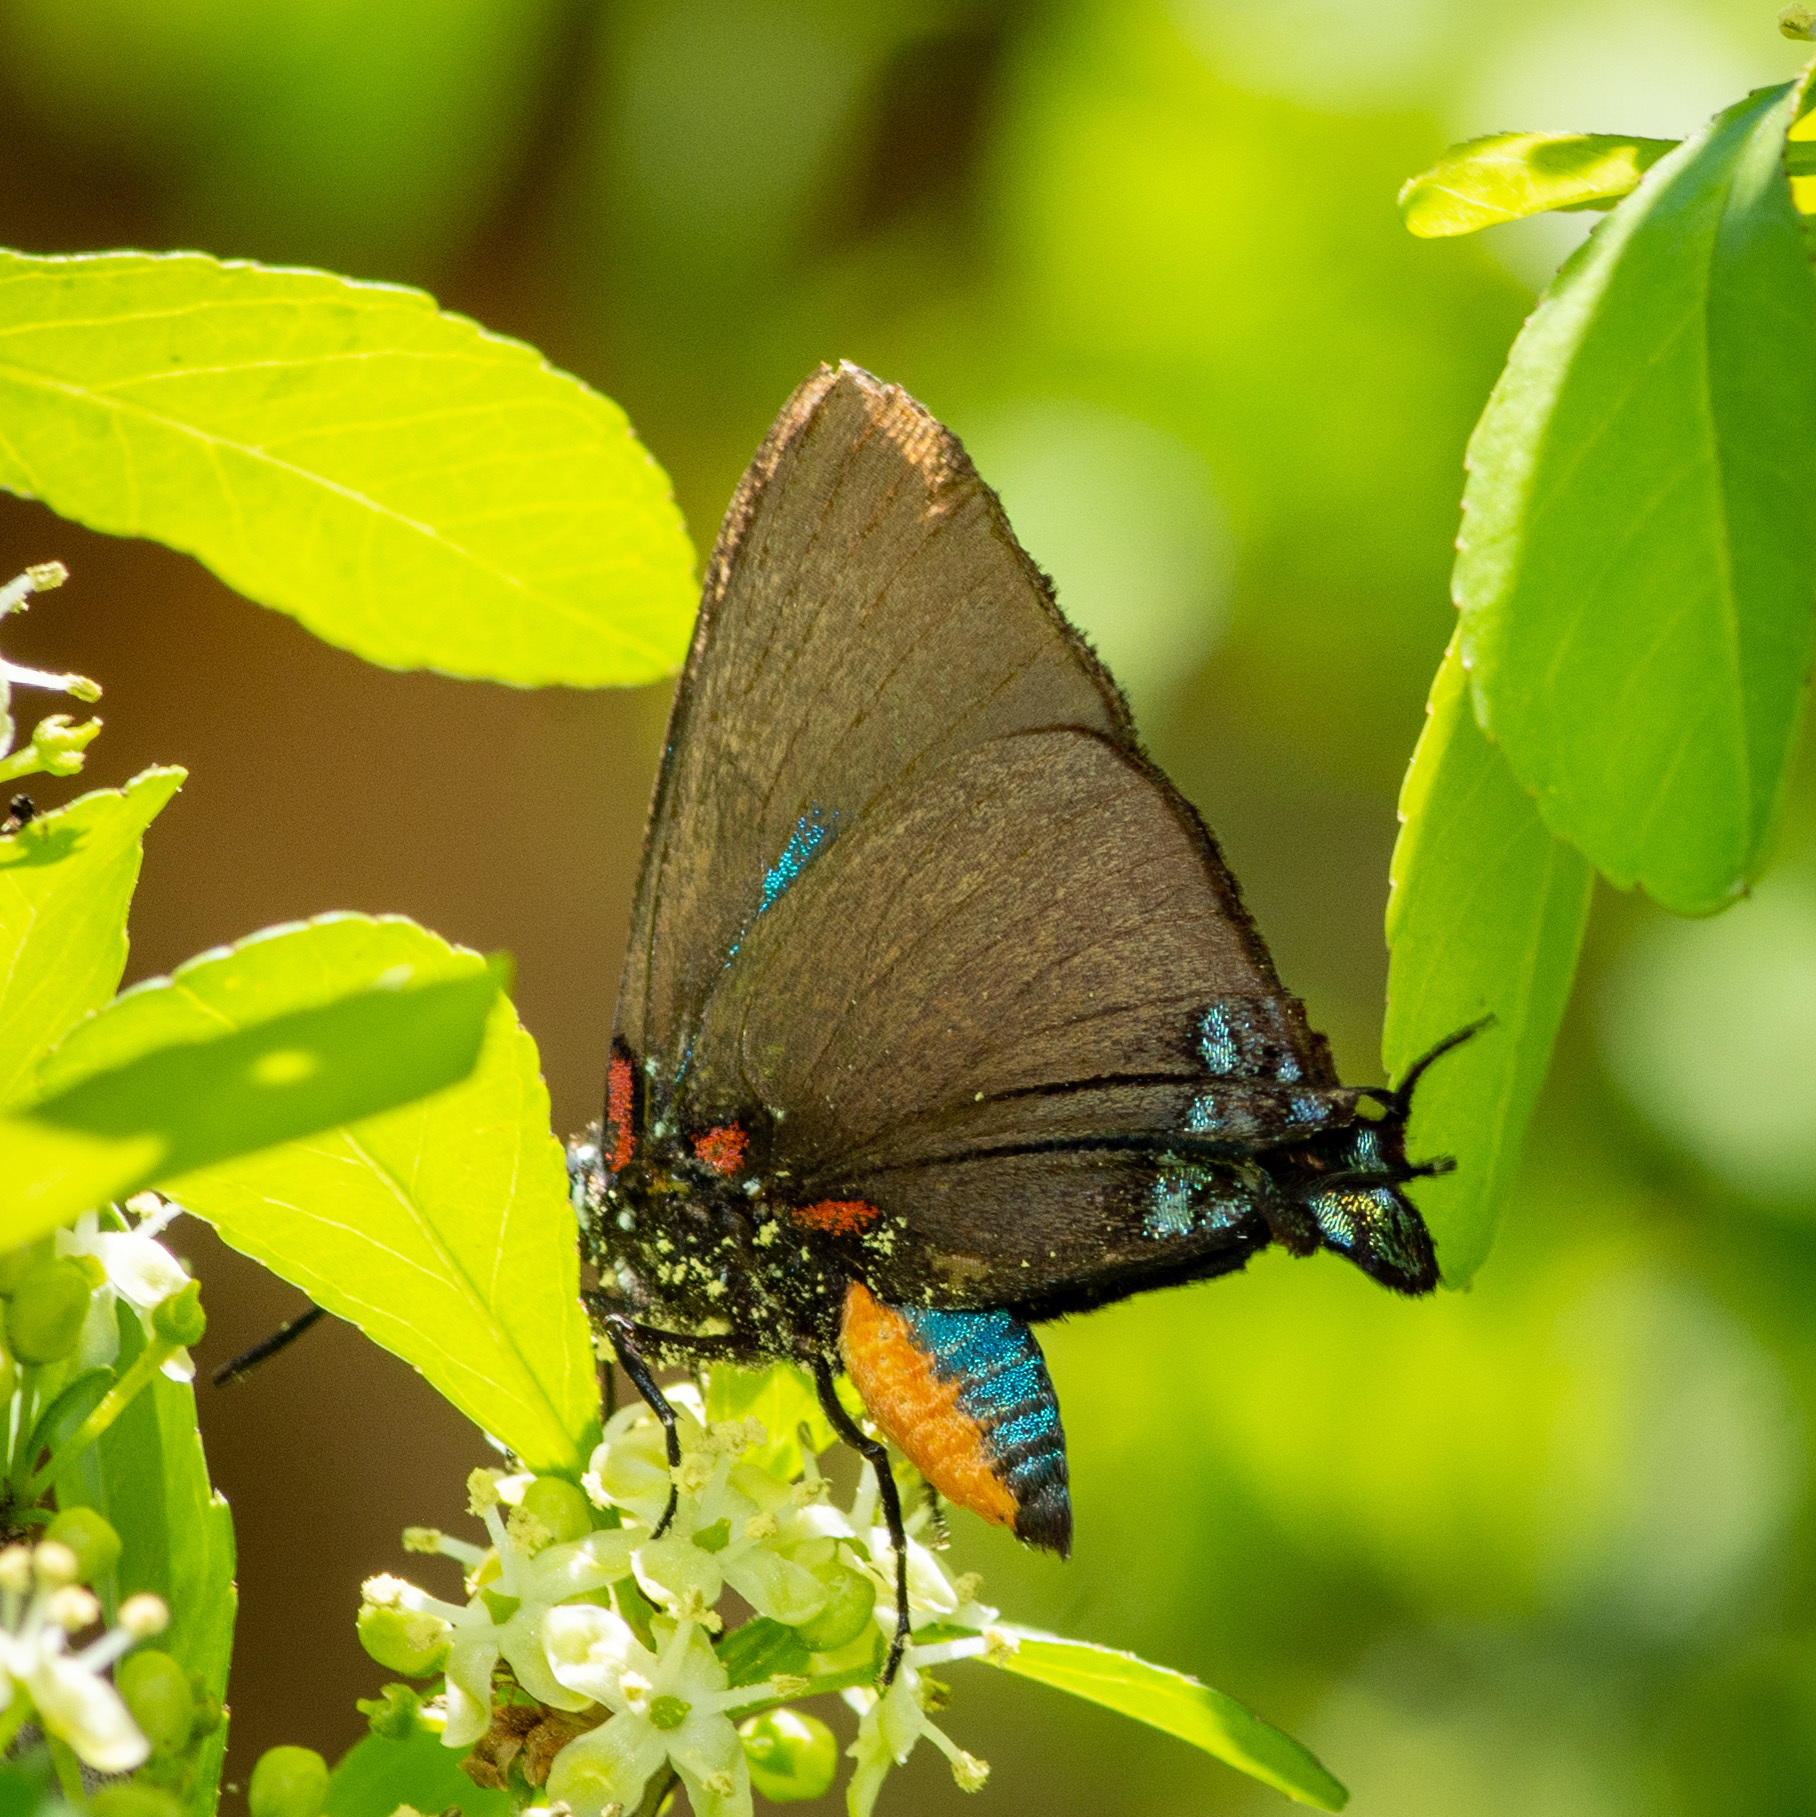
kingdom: Animalia
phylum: Arthropoda
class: Insecta
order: Lepidoptera
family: Lycaenidae
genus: Atlides
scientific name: Atlides halesus
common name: Great purple hairstreak
